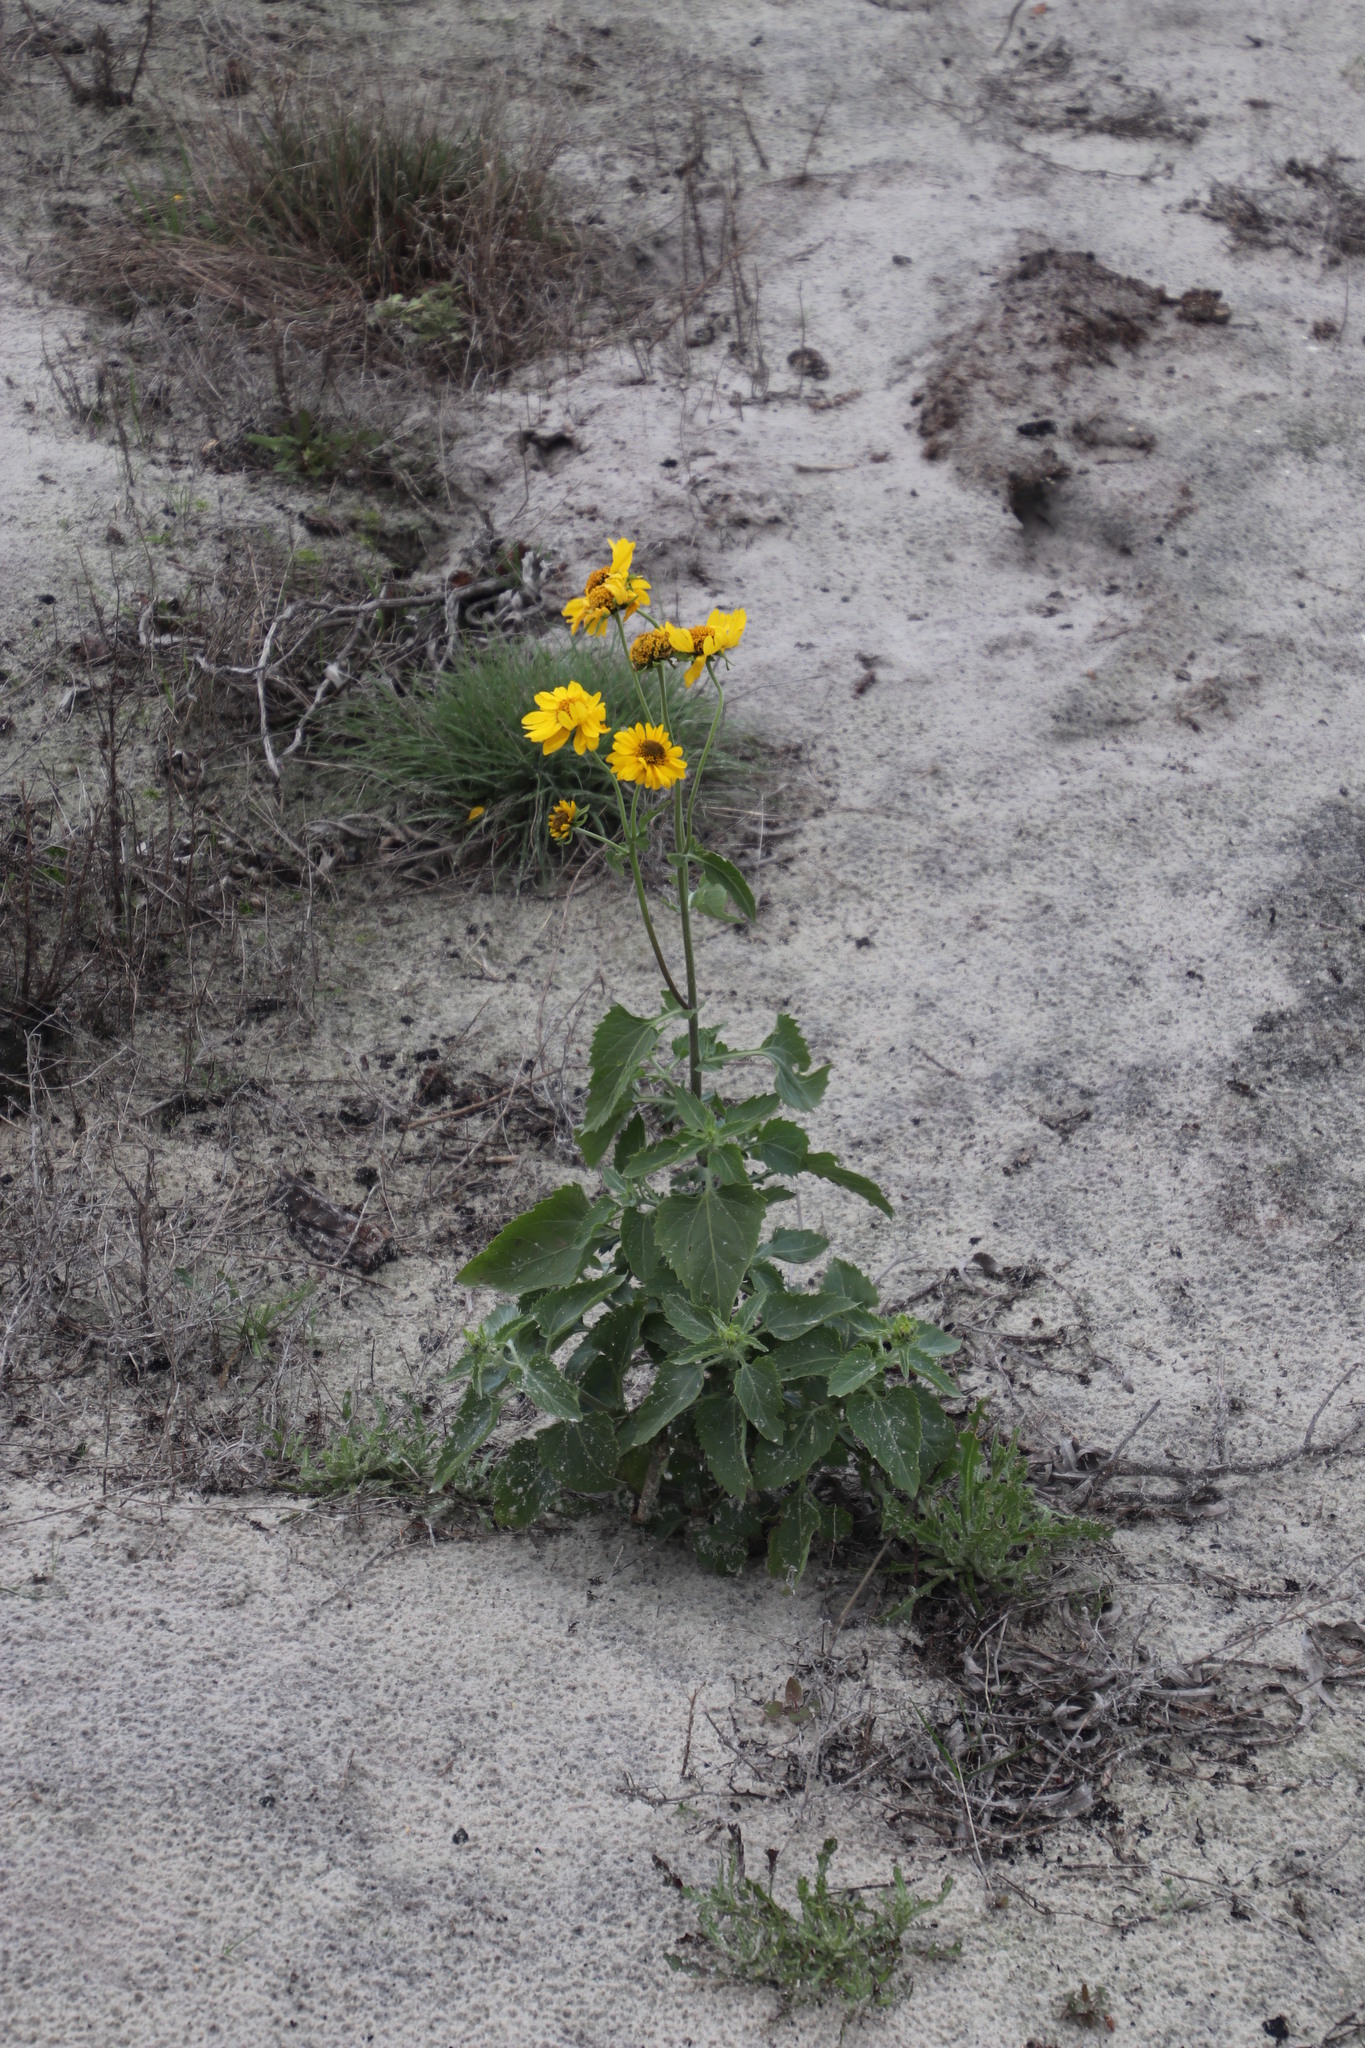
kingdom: Plantae
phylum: Tracheophyta
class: Magnoliopsida
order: Asterales
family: Asteraceae
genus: Verbesina
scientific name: Verbesina encelioides
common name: Golden crownbeard
